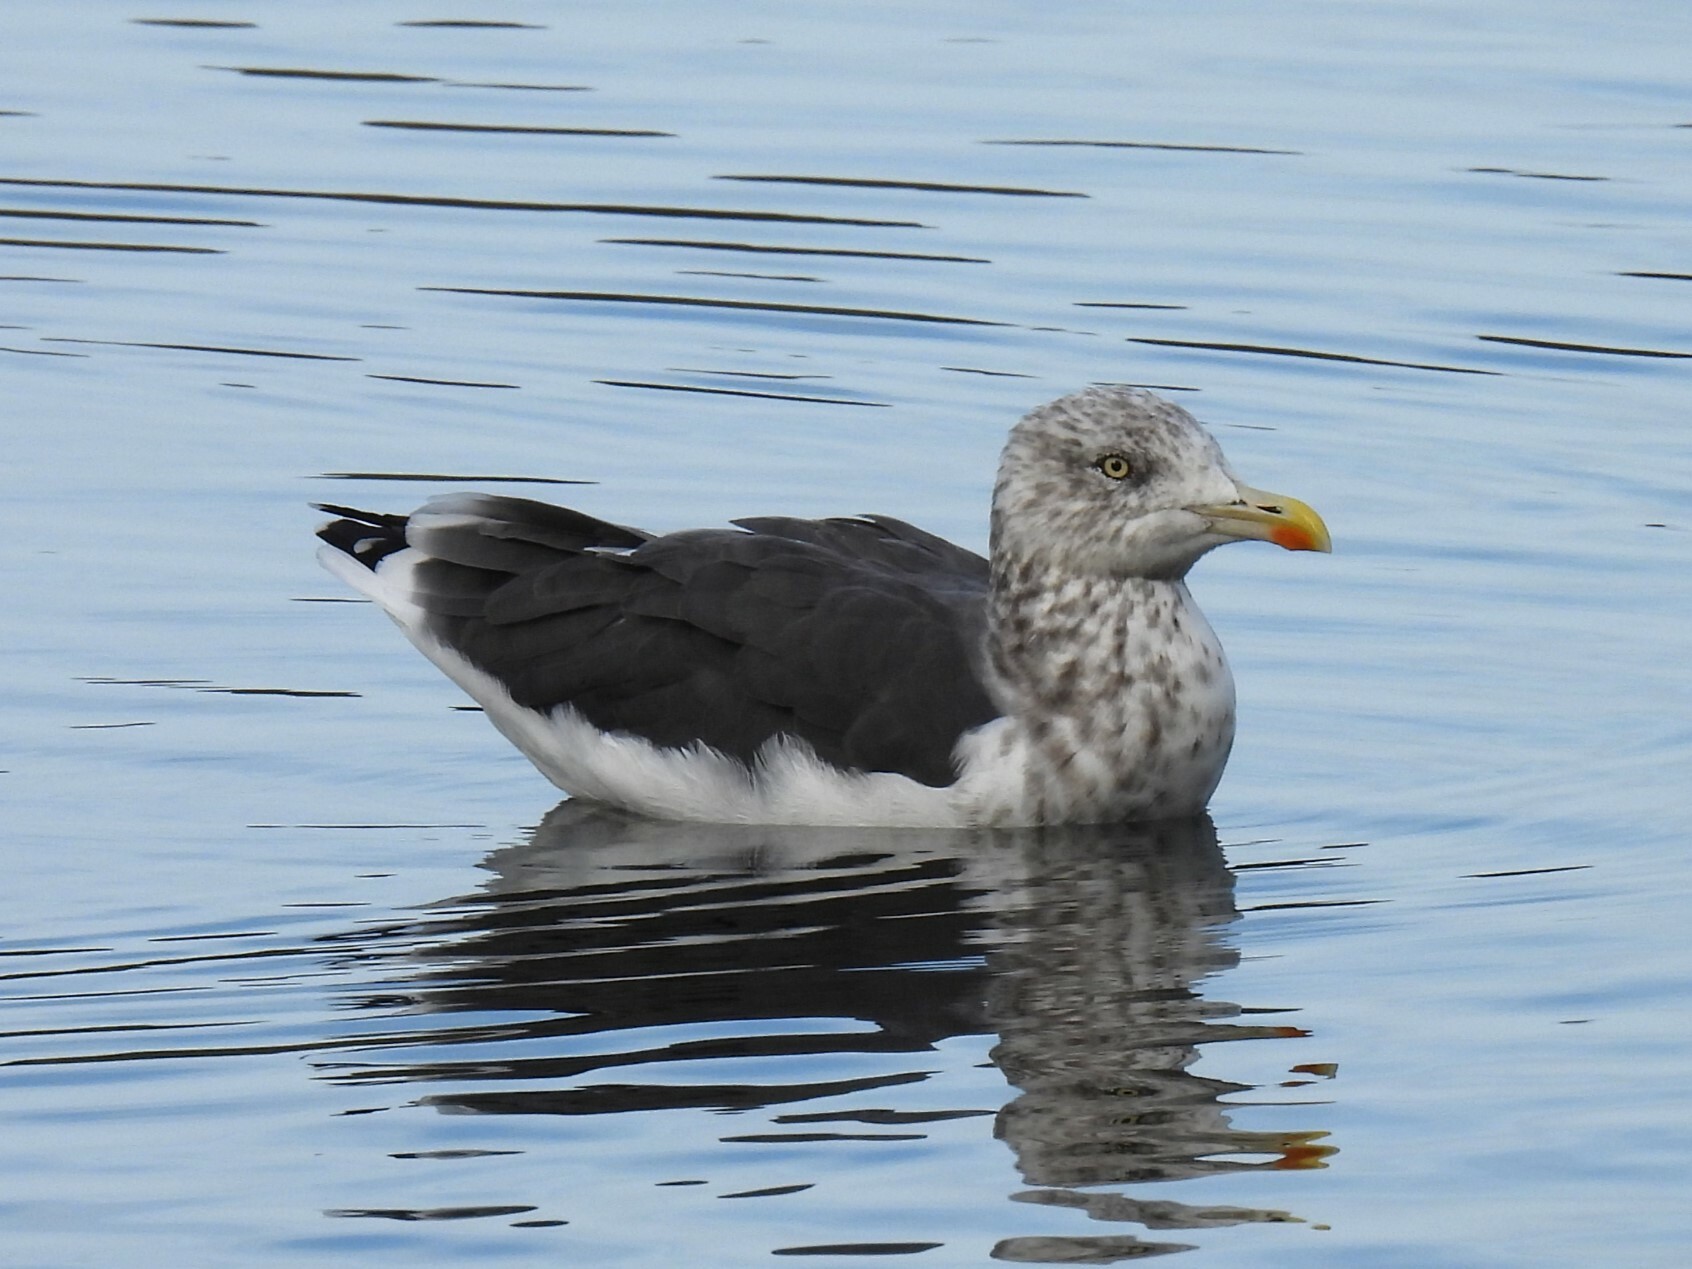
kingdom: Animalia
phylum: Chordata
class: Aves
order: Charadriiformes
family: Laridae
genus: Larus
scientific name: Larus fuscus
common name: Lesser black-backed gull
